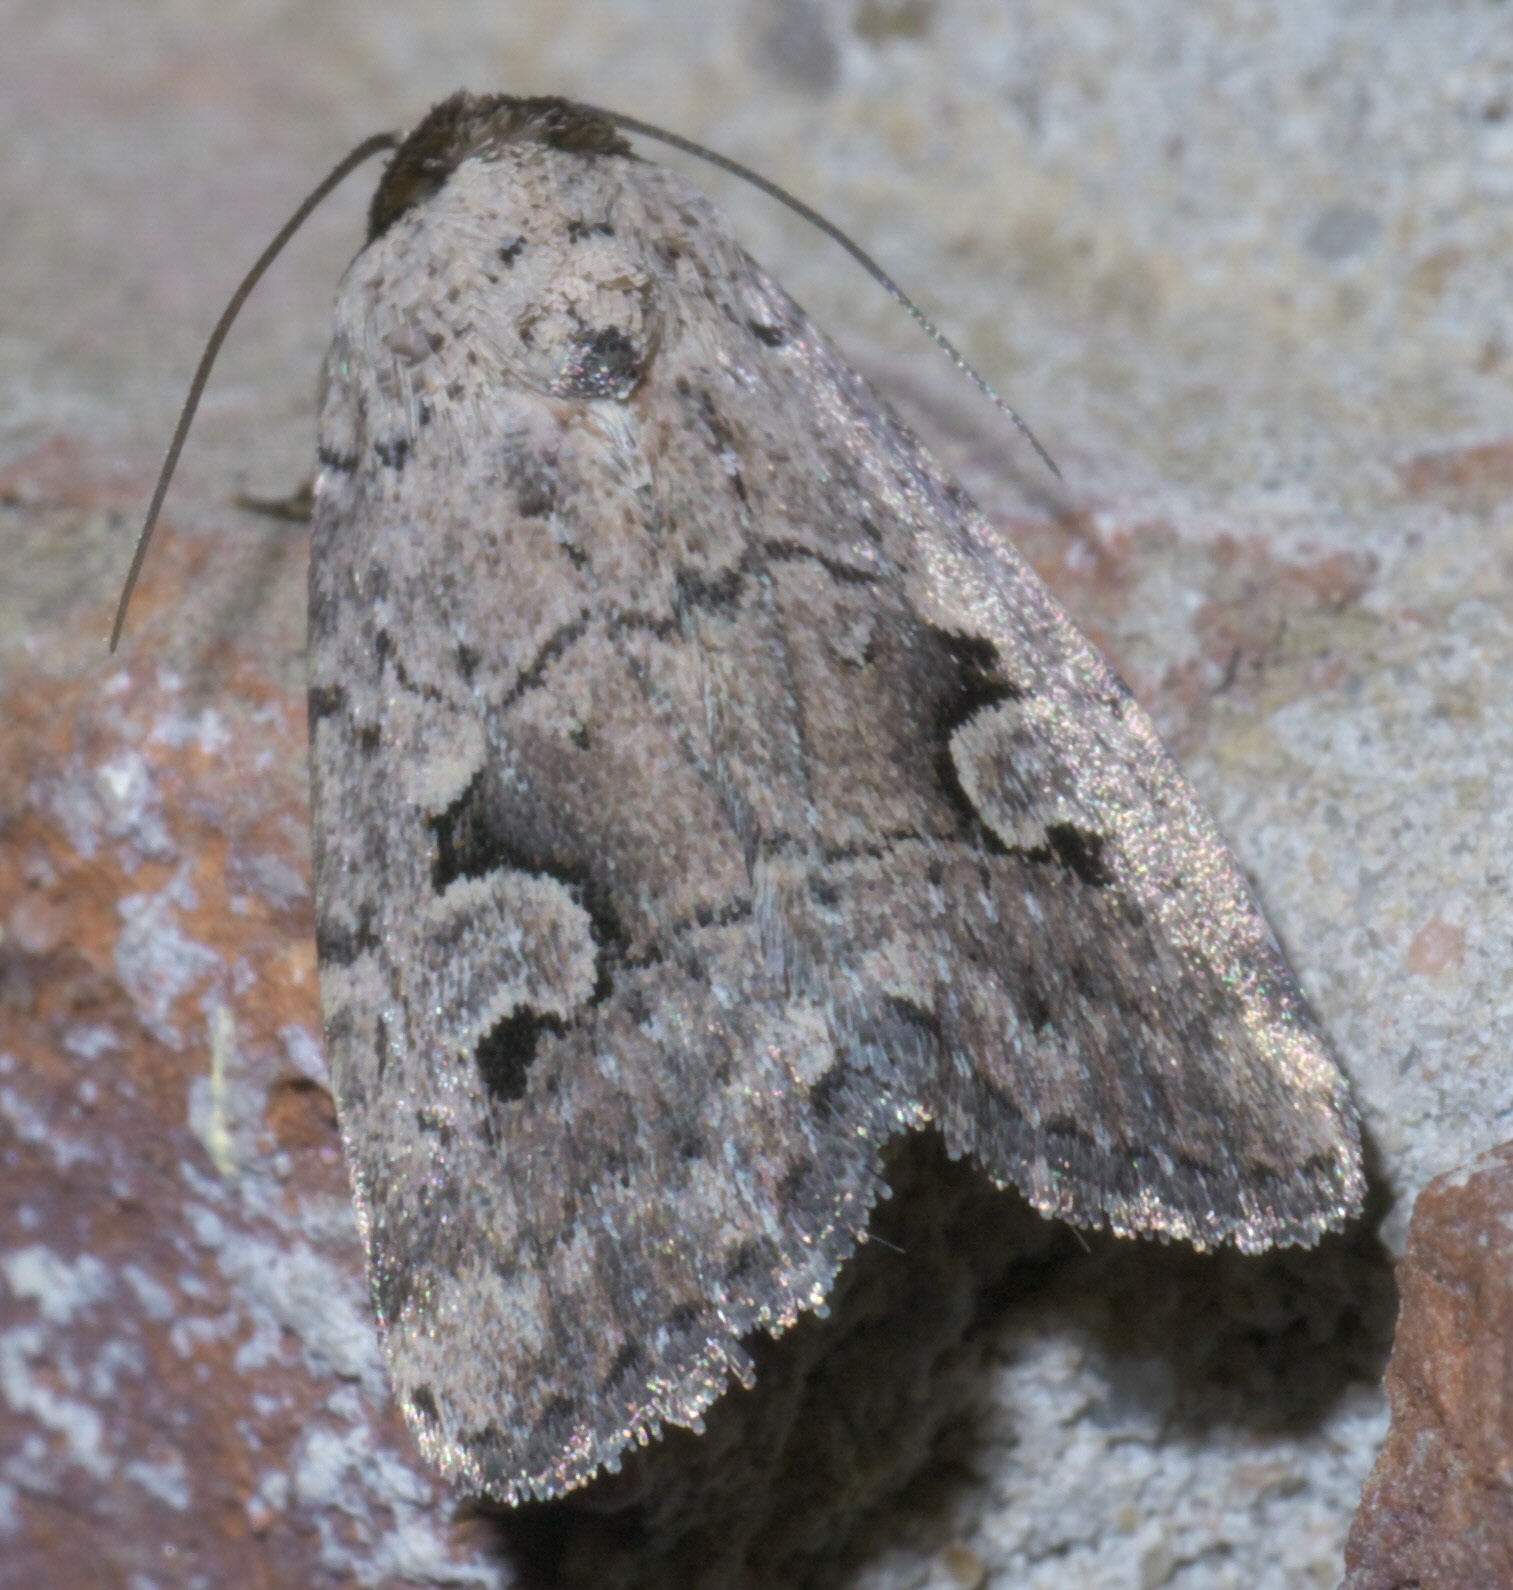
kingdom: Animalia
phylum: Arthropoda
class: Insecta
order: Lepidoptera
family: Noctuidae
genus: Elaphria
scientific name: Elaphria festivoides
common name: Festive midget
